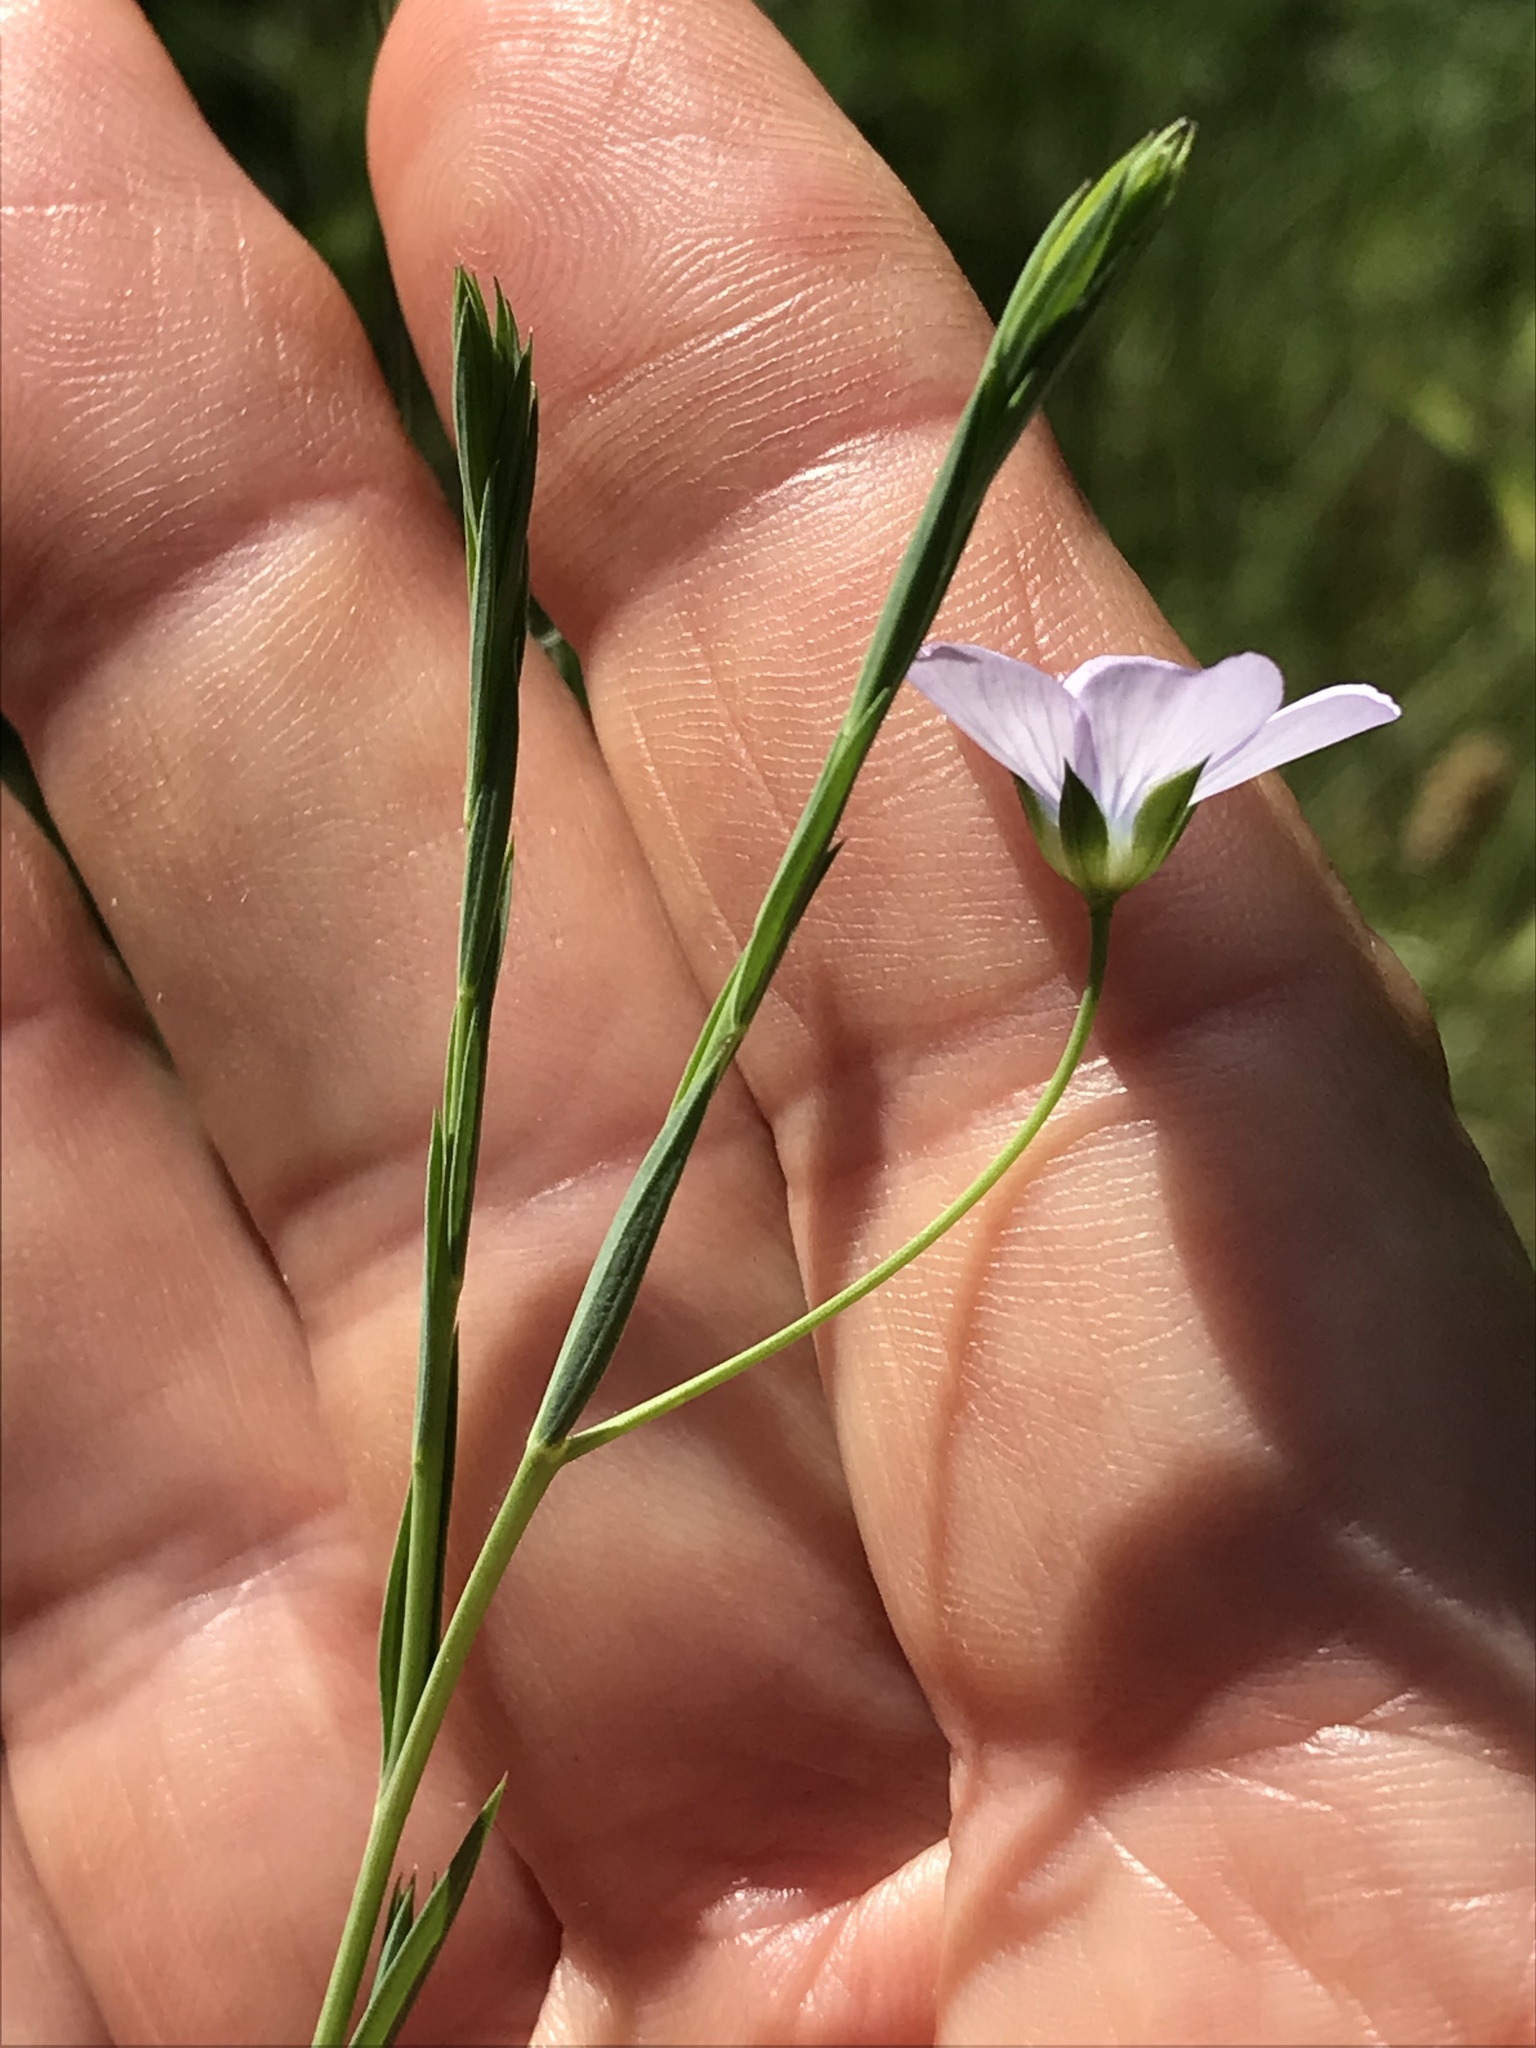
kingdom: Plantae
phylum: Tracheophyta
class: Magnoliopsida
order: Malpighiales
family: Linaceae
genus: Linum
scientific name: Linum bienne
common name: Pale flax
